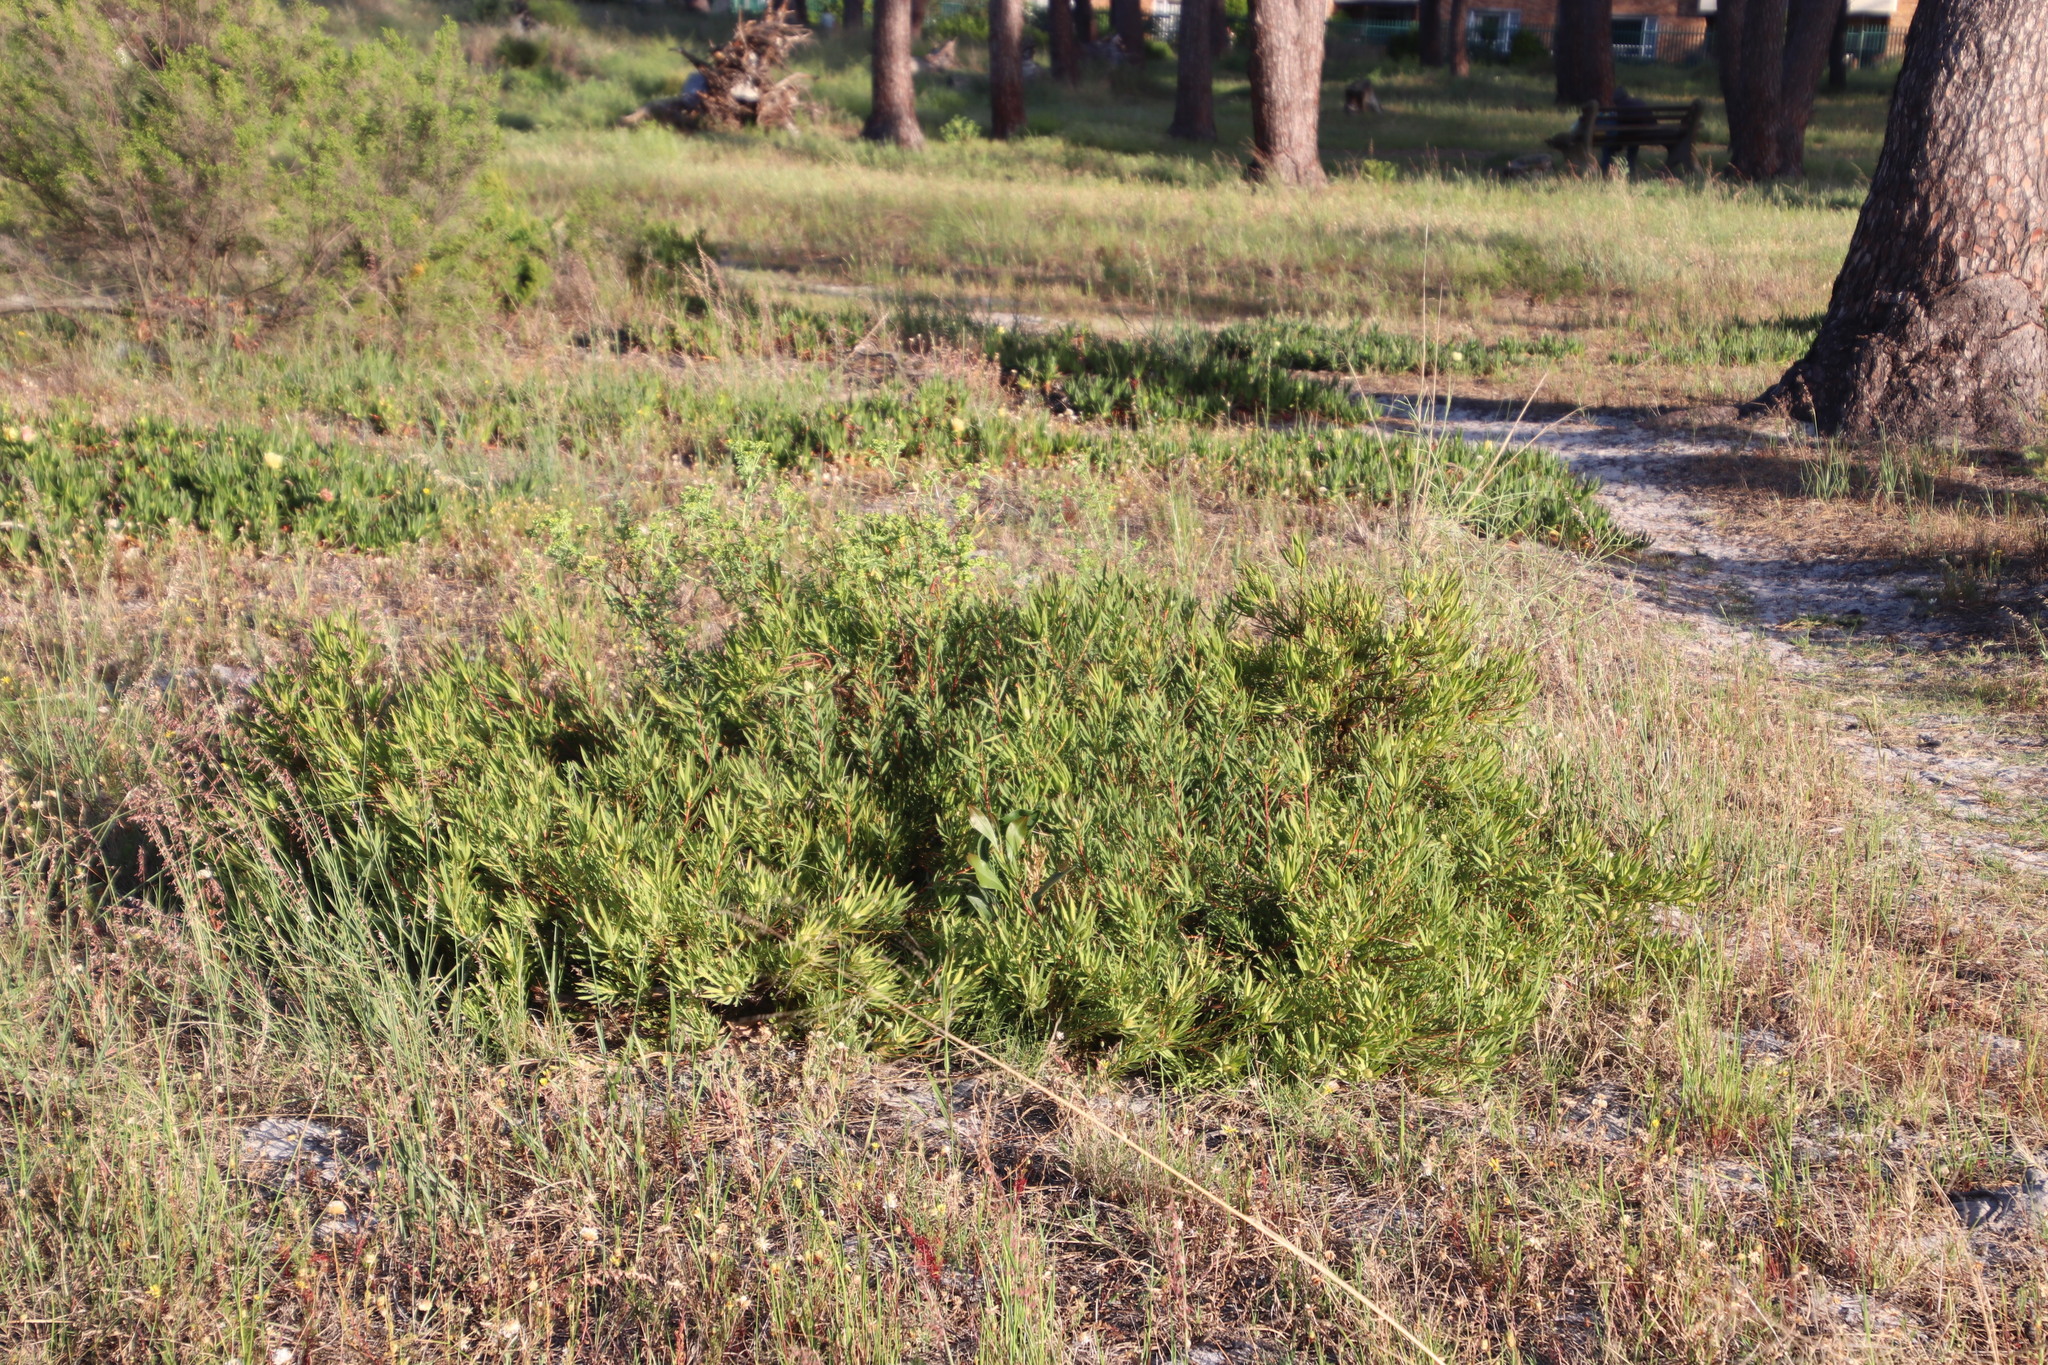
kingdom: Plantae
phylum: Tracheophyta
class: Magnoliopsida
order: Proteales
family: Proteaceae
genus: Leucadendron
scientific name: Leucadendron salignum
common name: Common sunshine conebush
